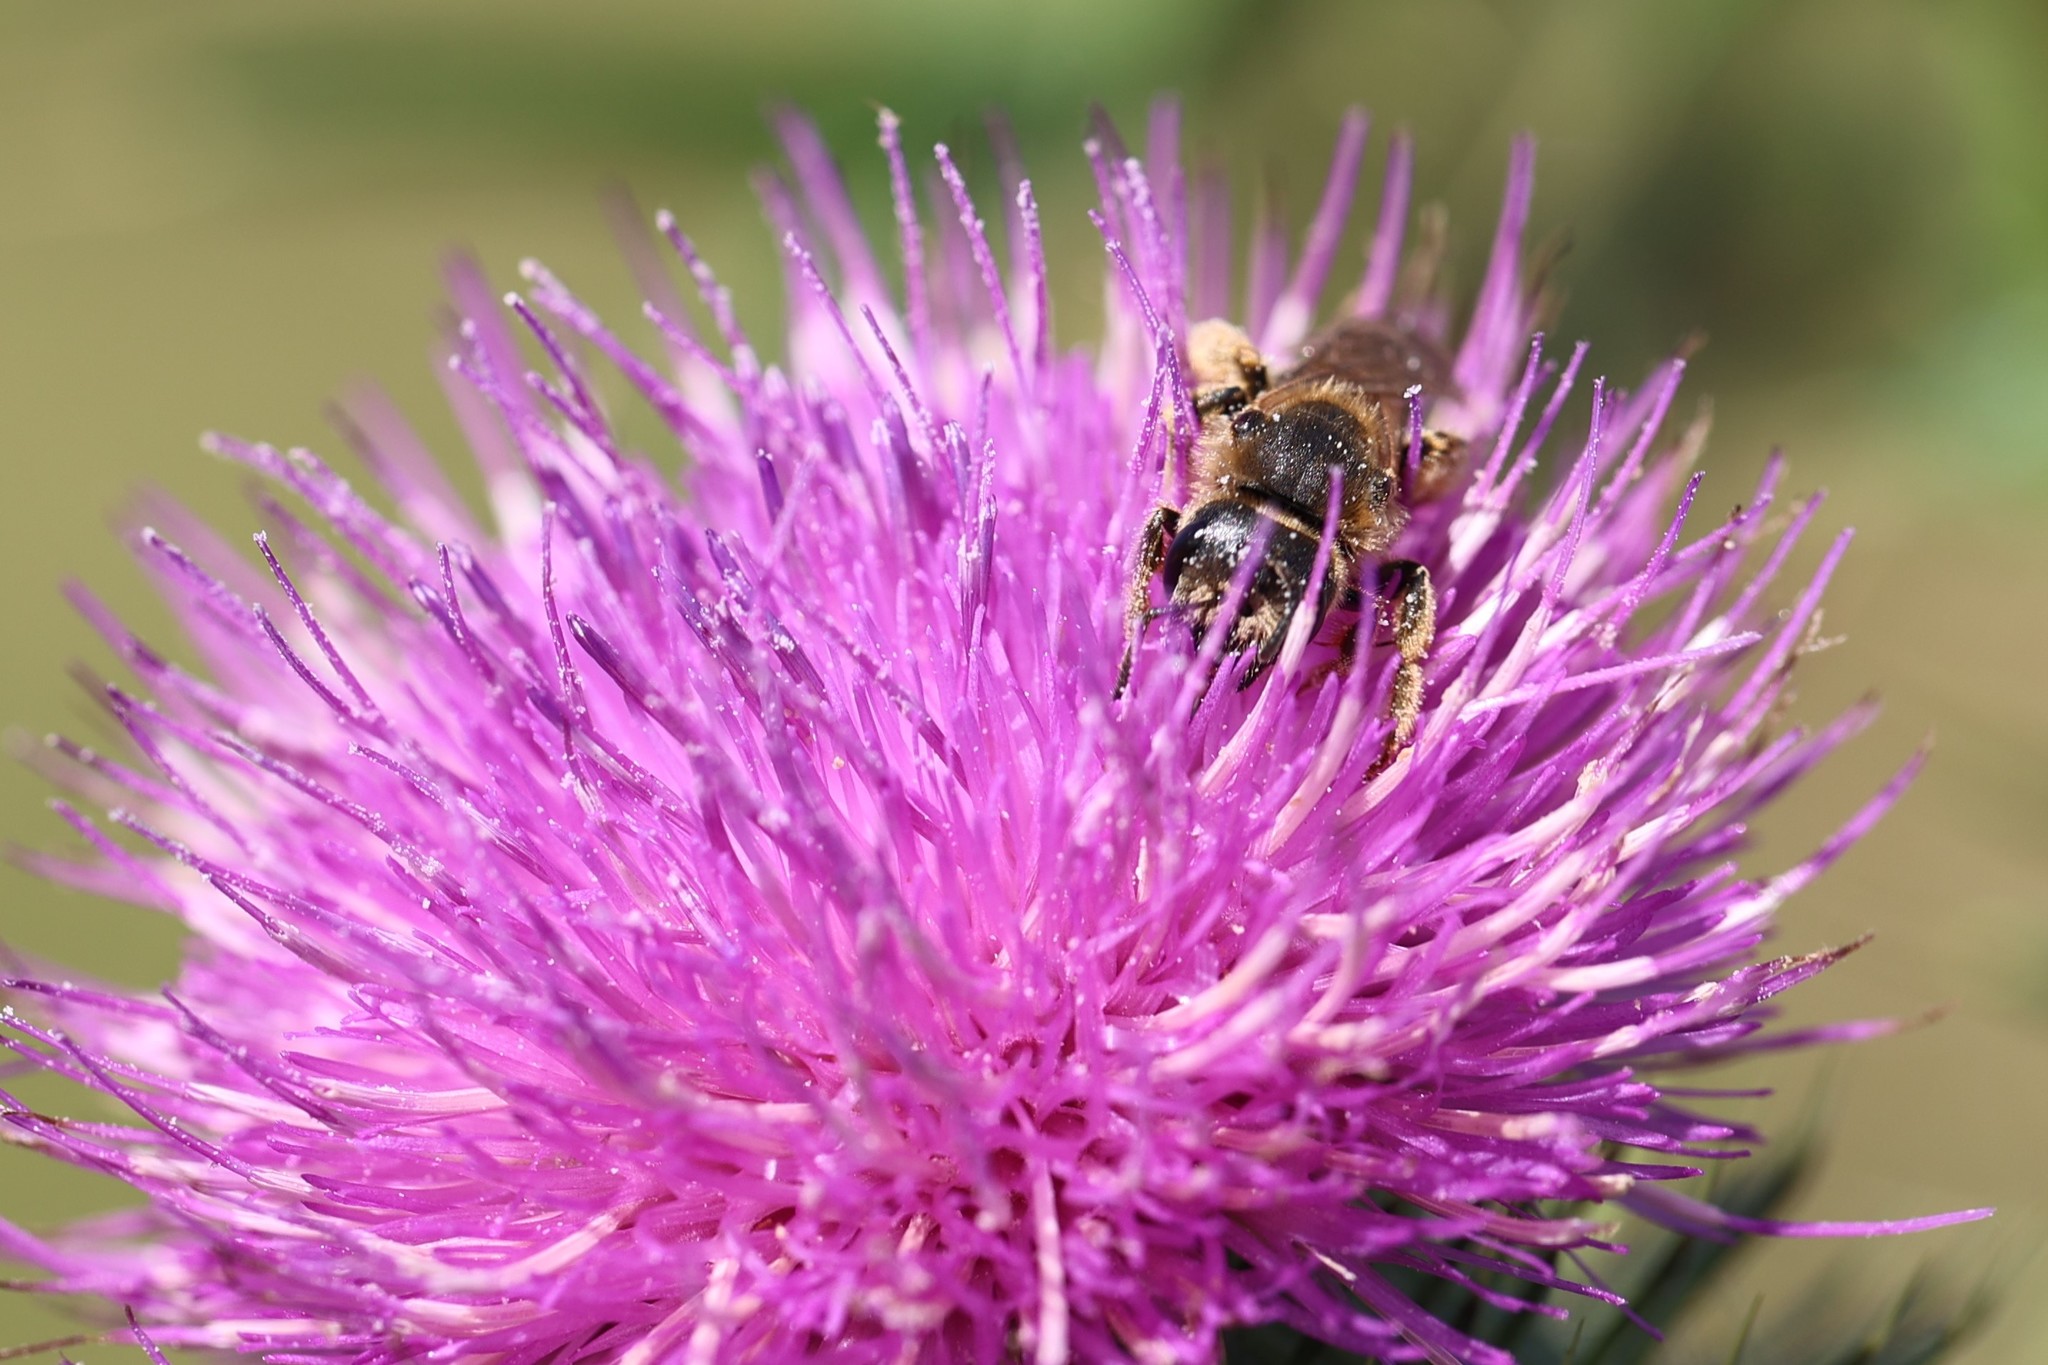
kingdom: Animalia
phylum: Arthropoda
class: Insecta
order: Hymenoptera
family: Halictidae
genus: Halictus
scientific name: Halictus scabiosae
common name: Great banded furrow bee
